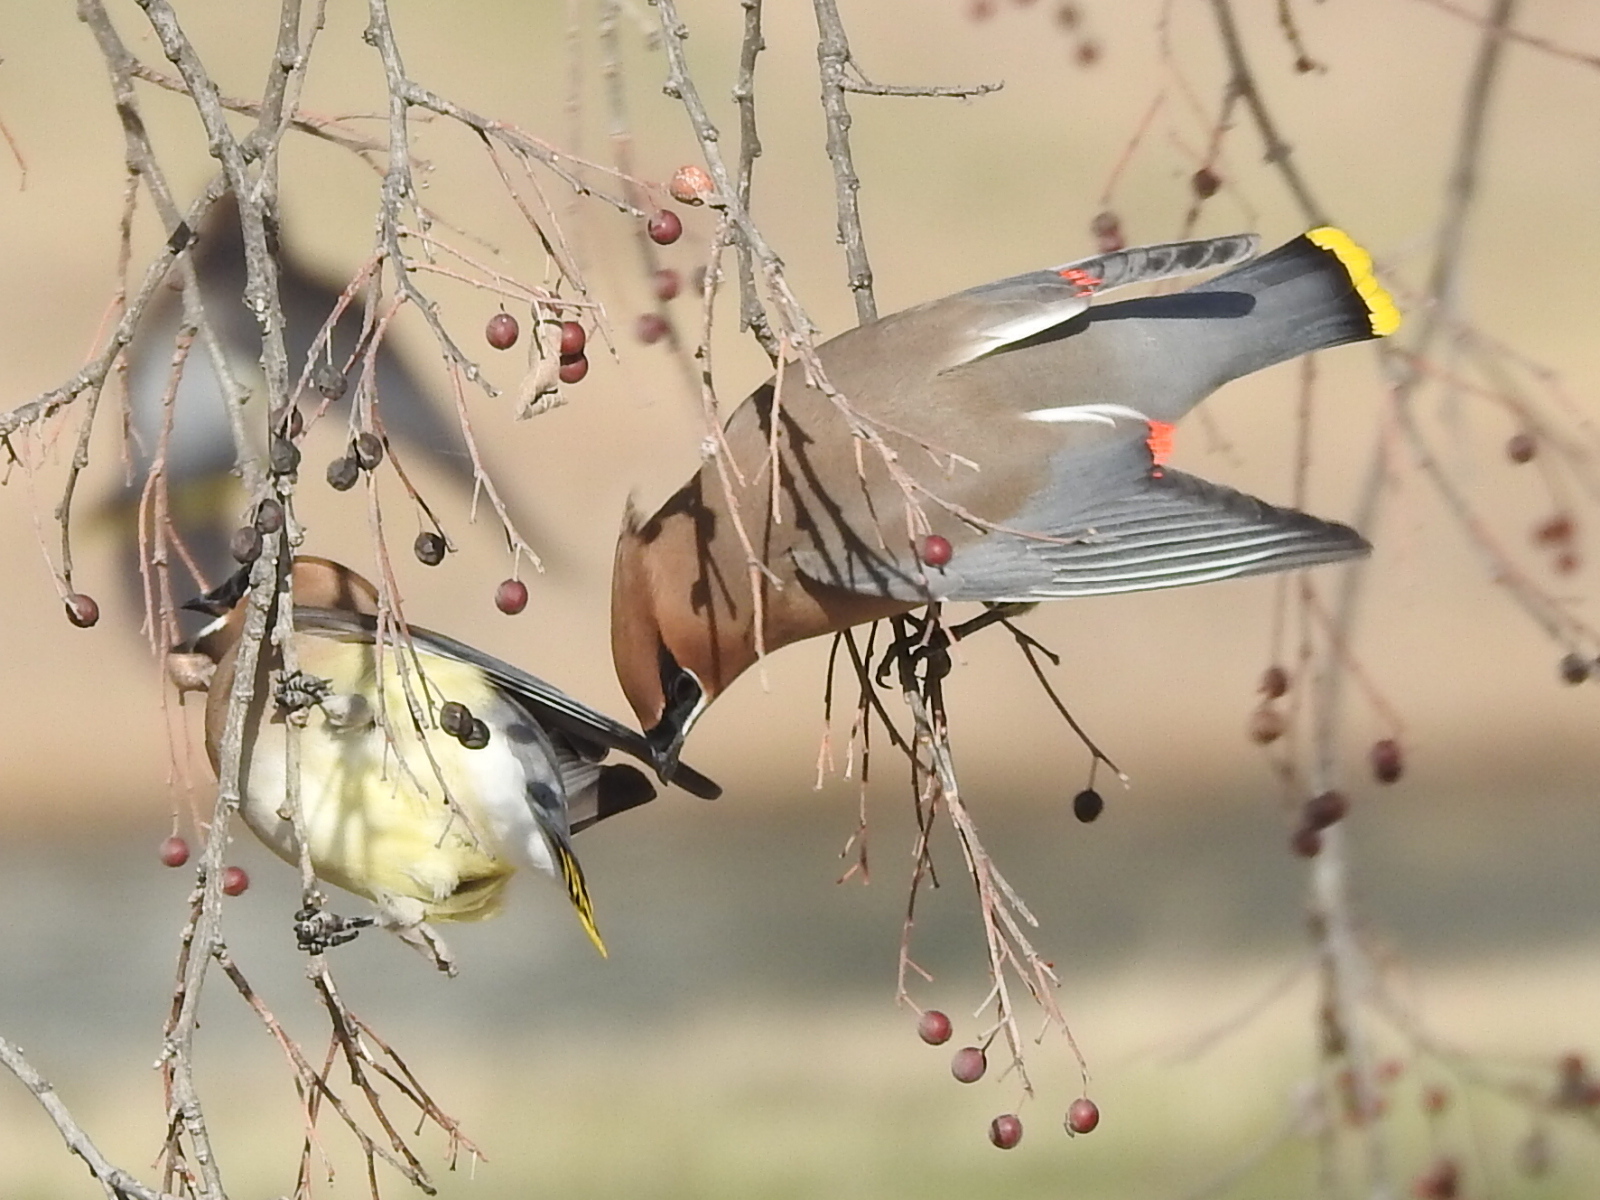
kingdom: Animalia
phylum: Chordata
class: Aves
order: Passeriformes
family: Bombycillidae
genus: Bombycilla
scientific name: Bombycilla cedrorum
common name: Cedar waxwing
